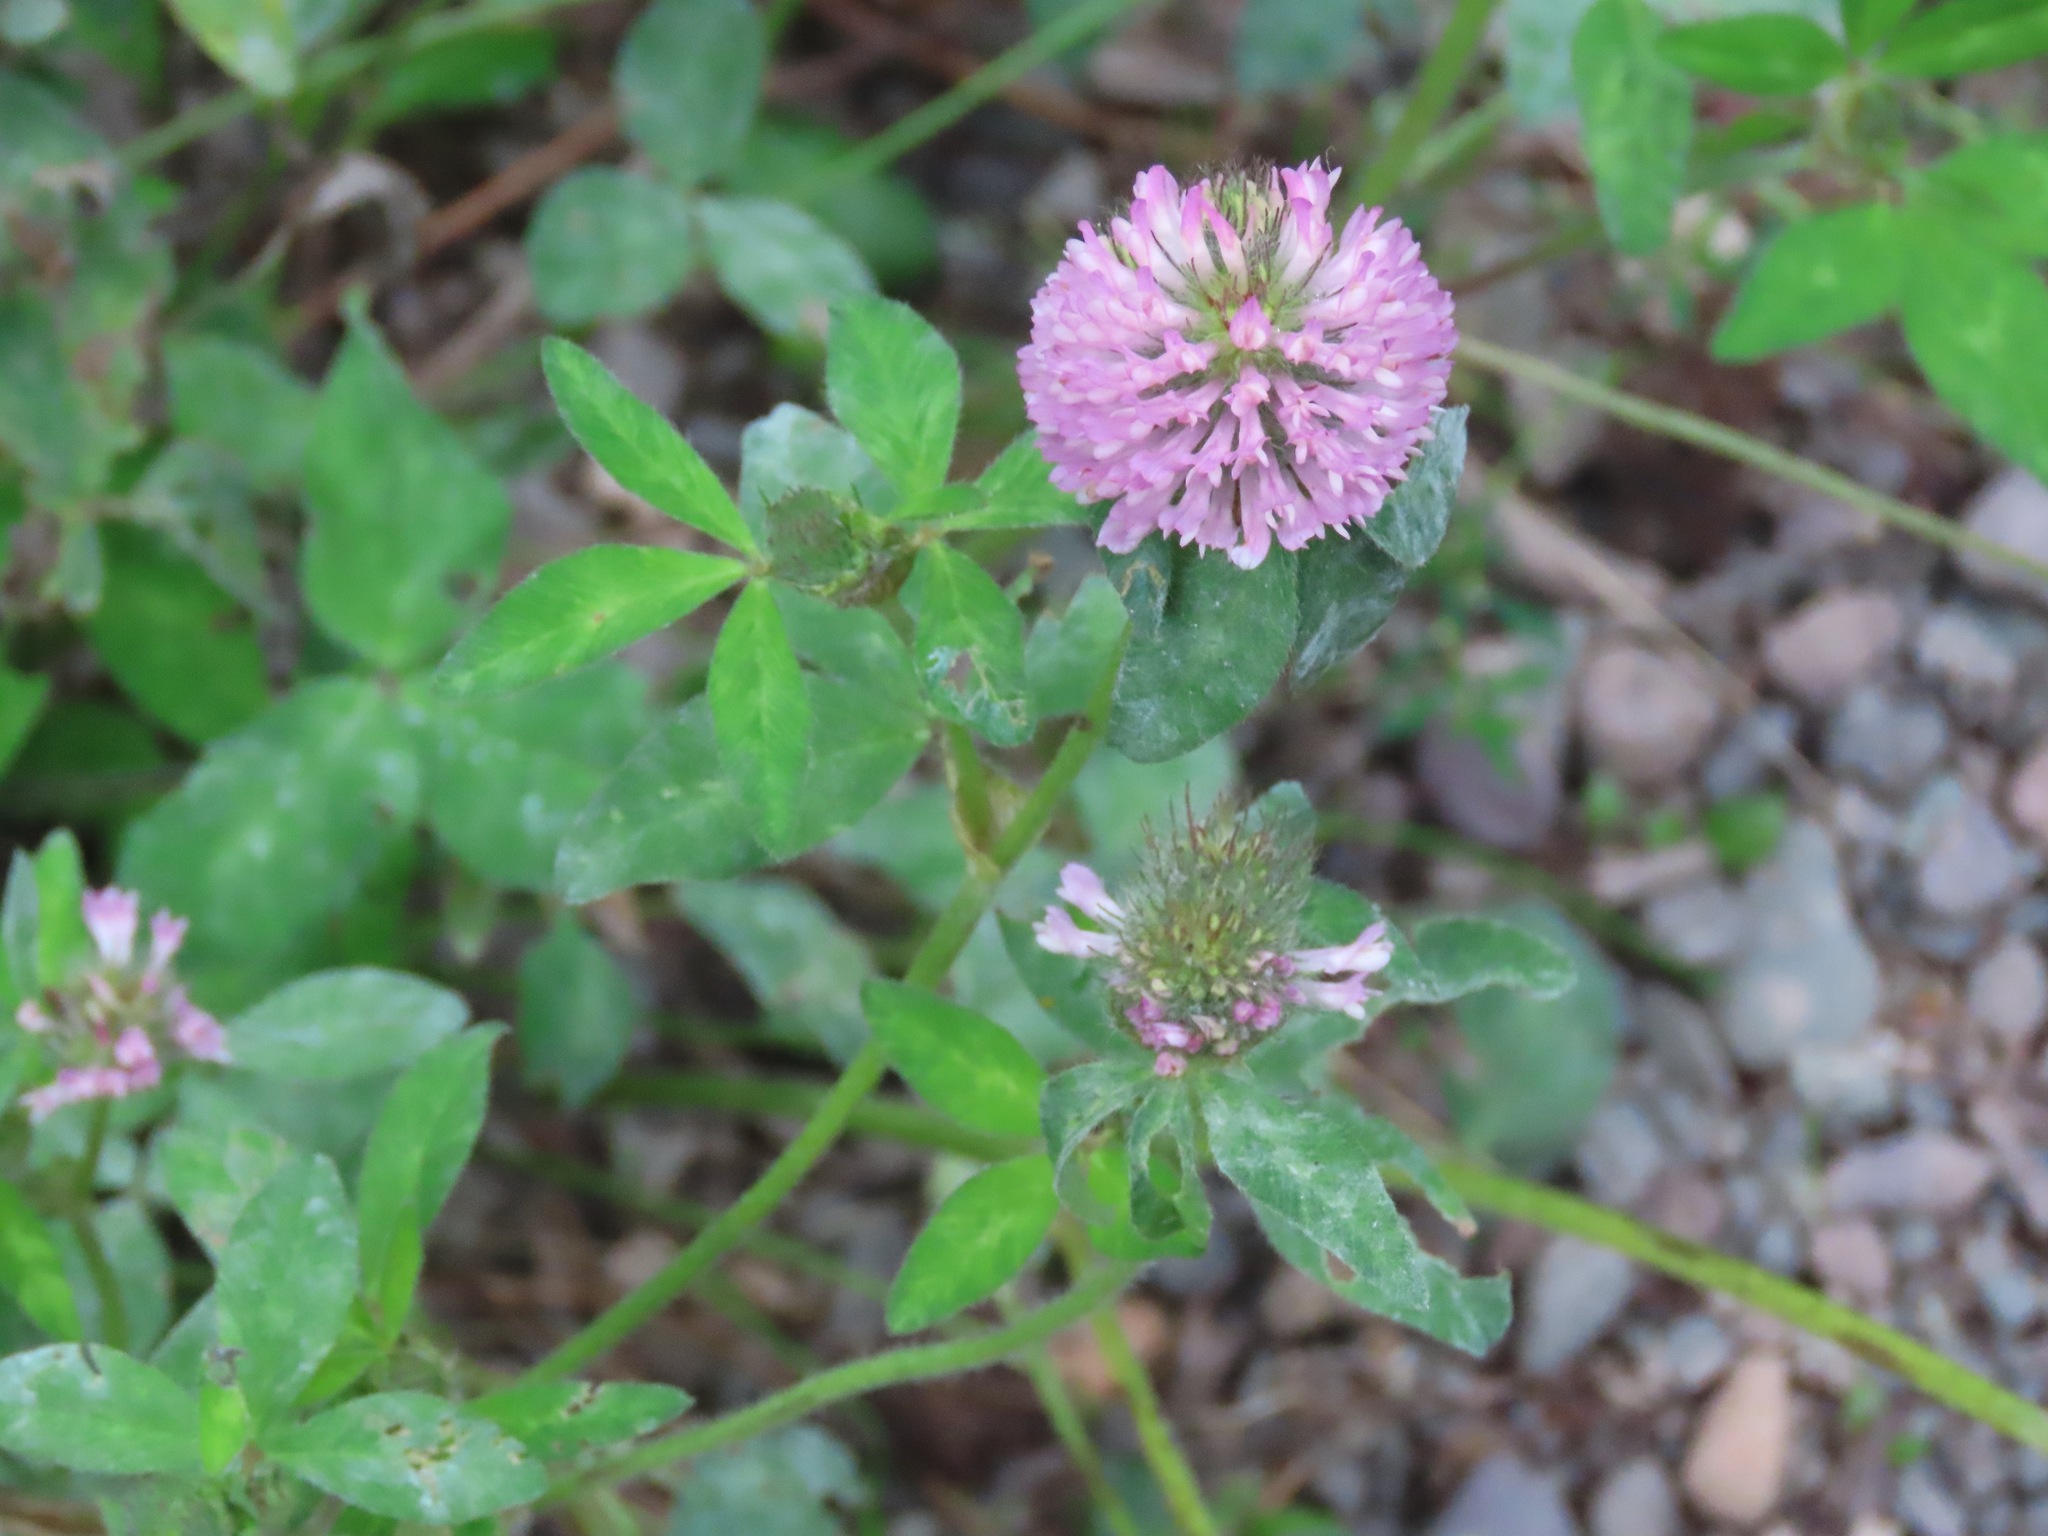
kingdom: Plantae
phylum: Tracheophyta
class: Magnoliopsida
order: Fabales
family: Fabaceae
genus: Trifolium
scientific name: Trifolium pratense
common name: Red clover
